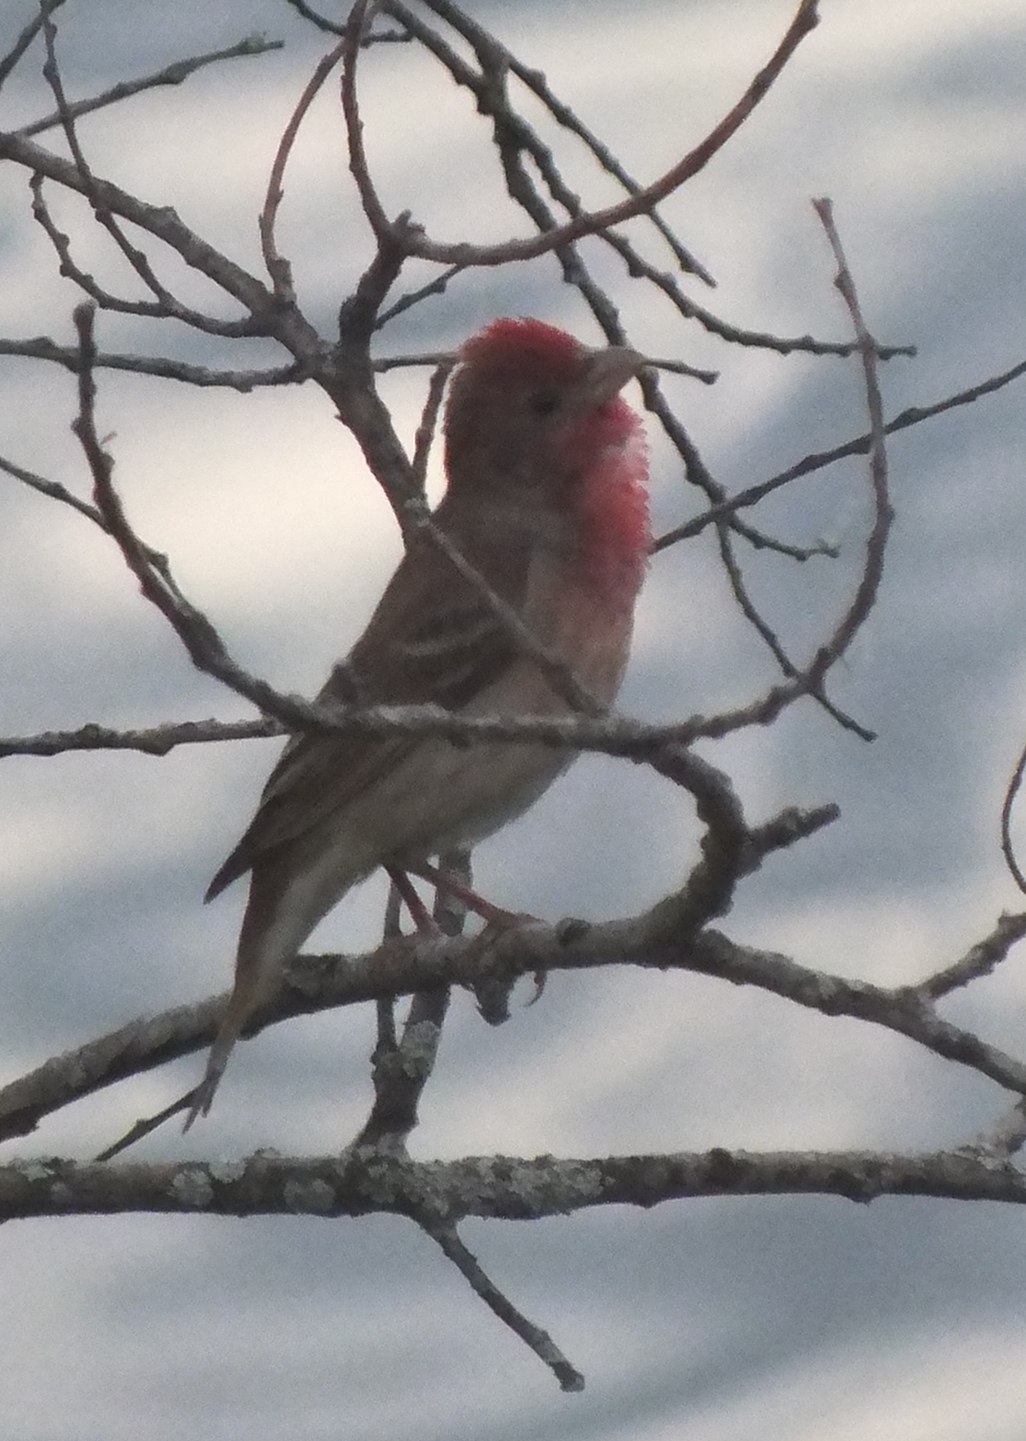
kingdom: Animalia
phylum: Chordata
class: Aves
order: Passeriformes
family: Fringillidae
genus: Carpodacus
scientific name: Carpodacus erythrinus
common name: Common rosefinch
